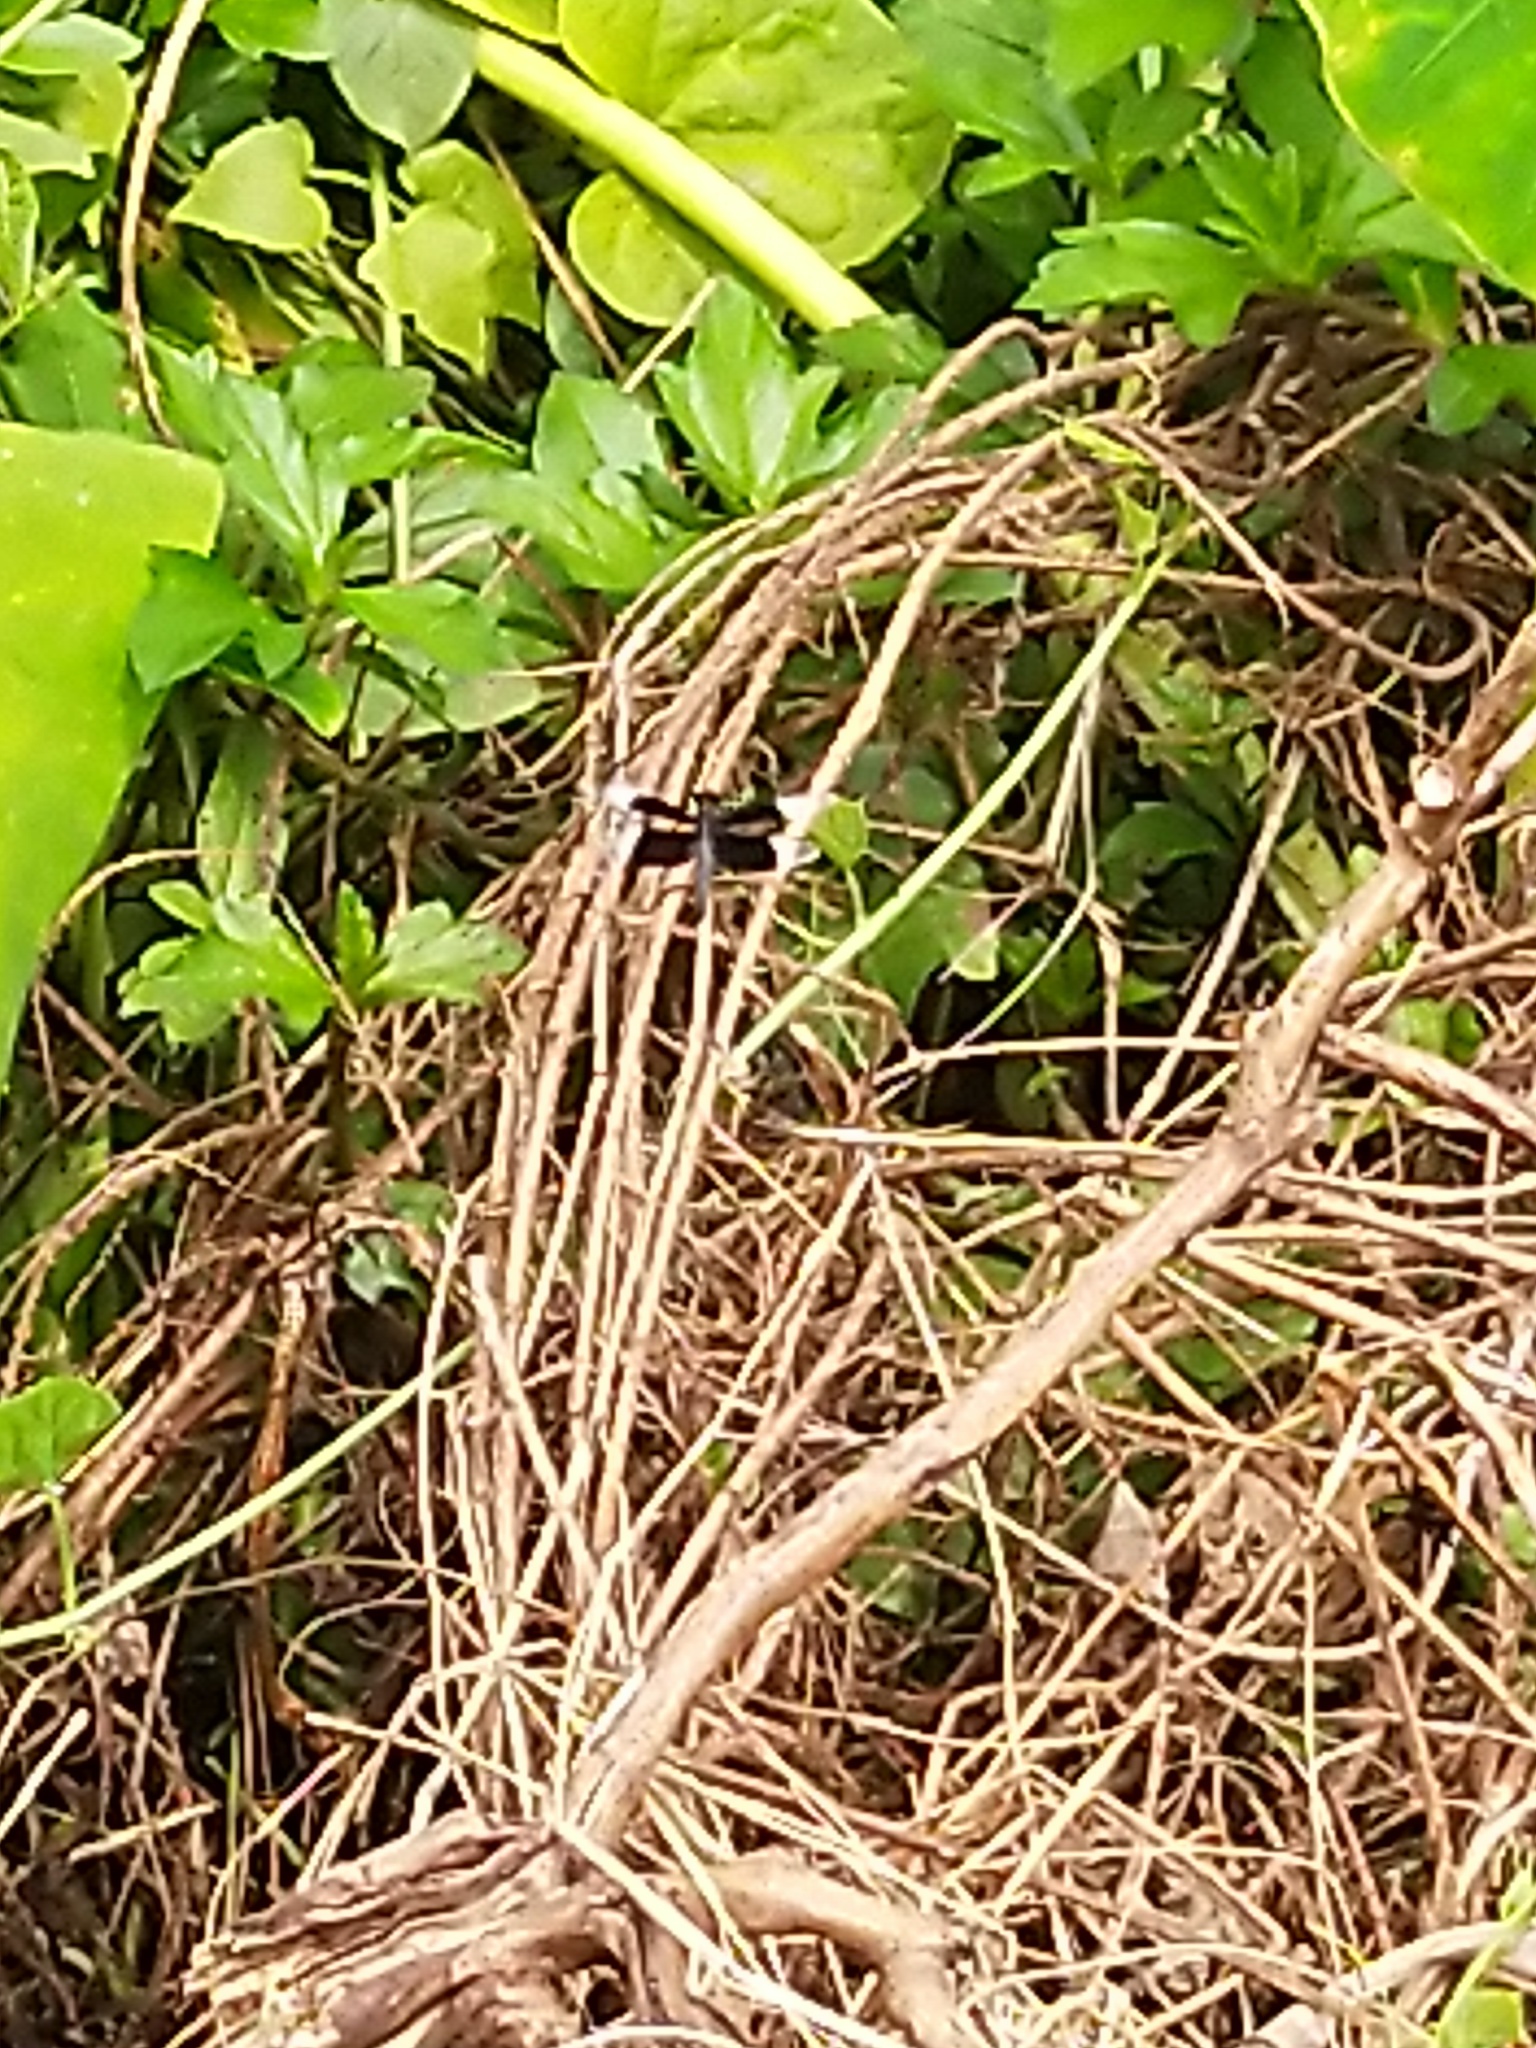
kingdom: Animalia
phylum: Arthropoda
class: Insecta
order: Odonata
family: Libellulidae
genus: Neurothemis
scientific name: Neurothemis tullia
